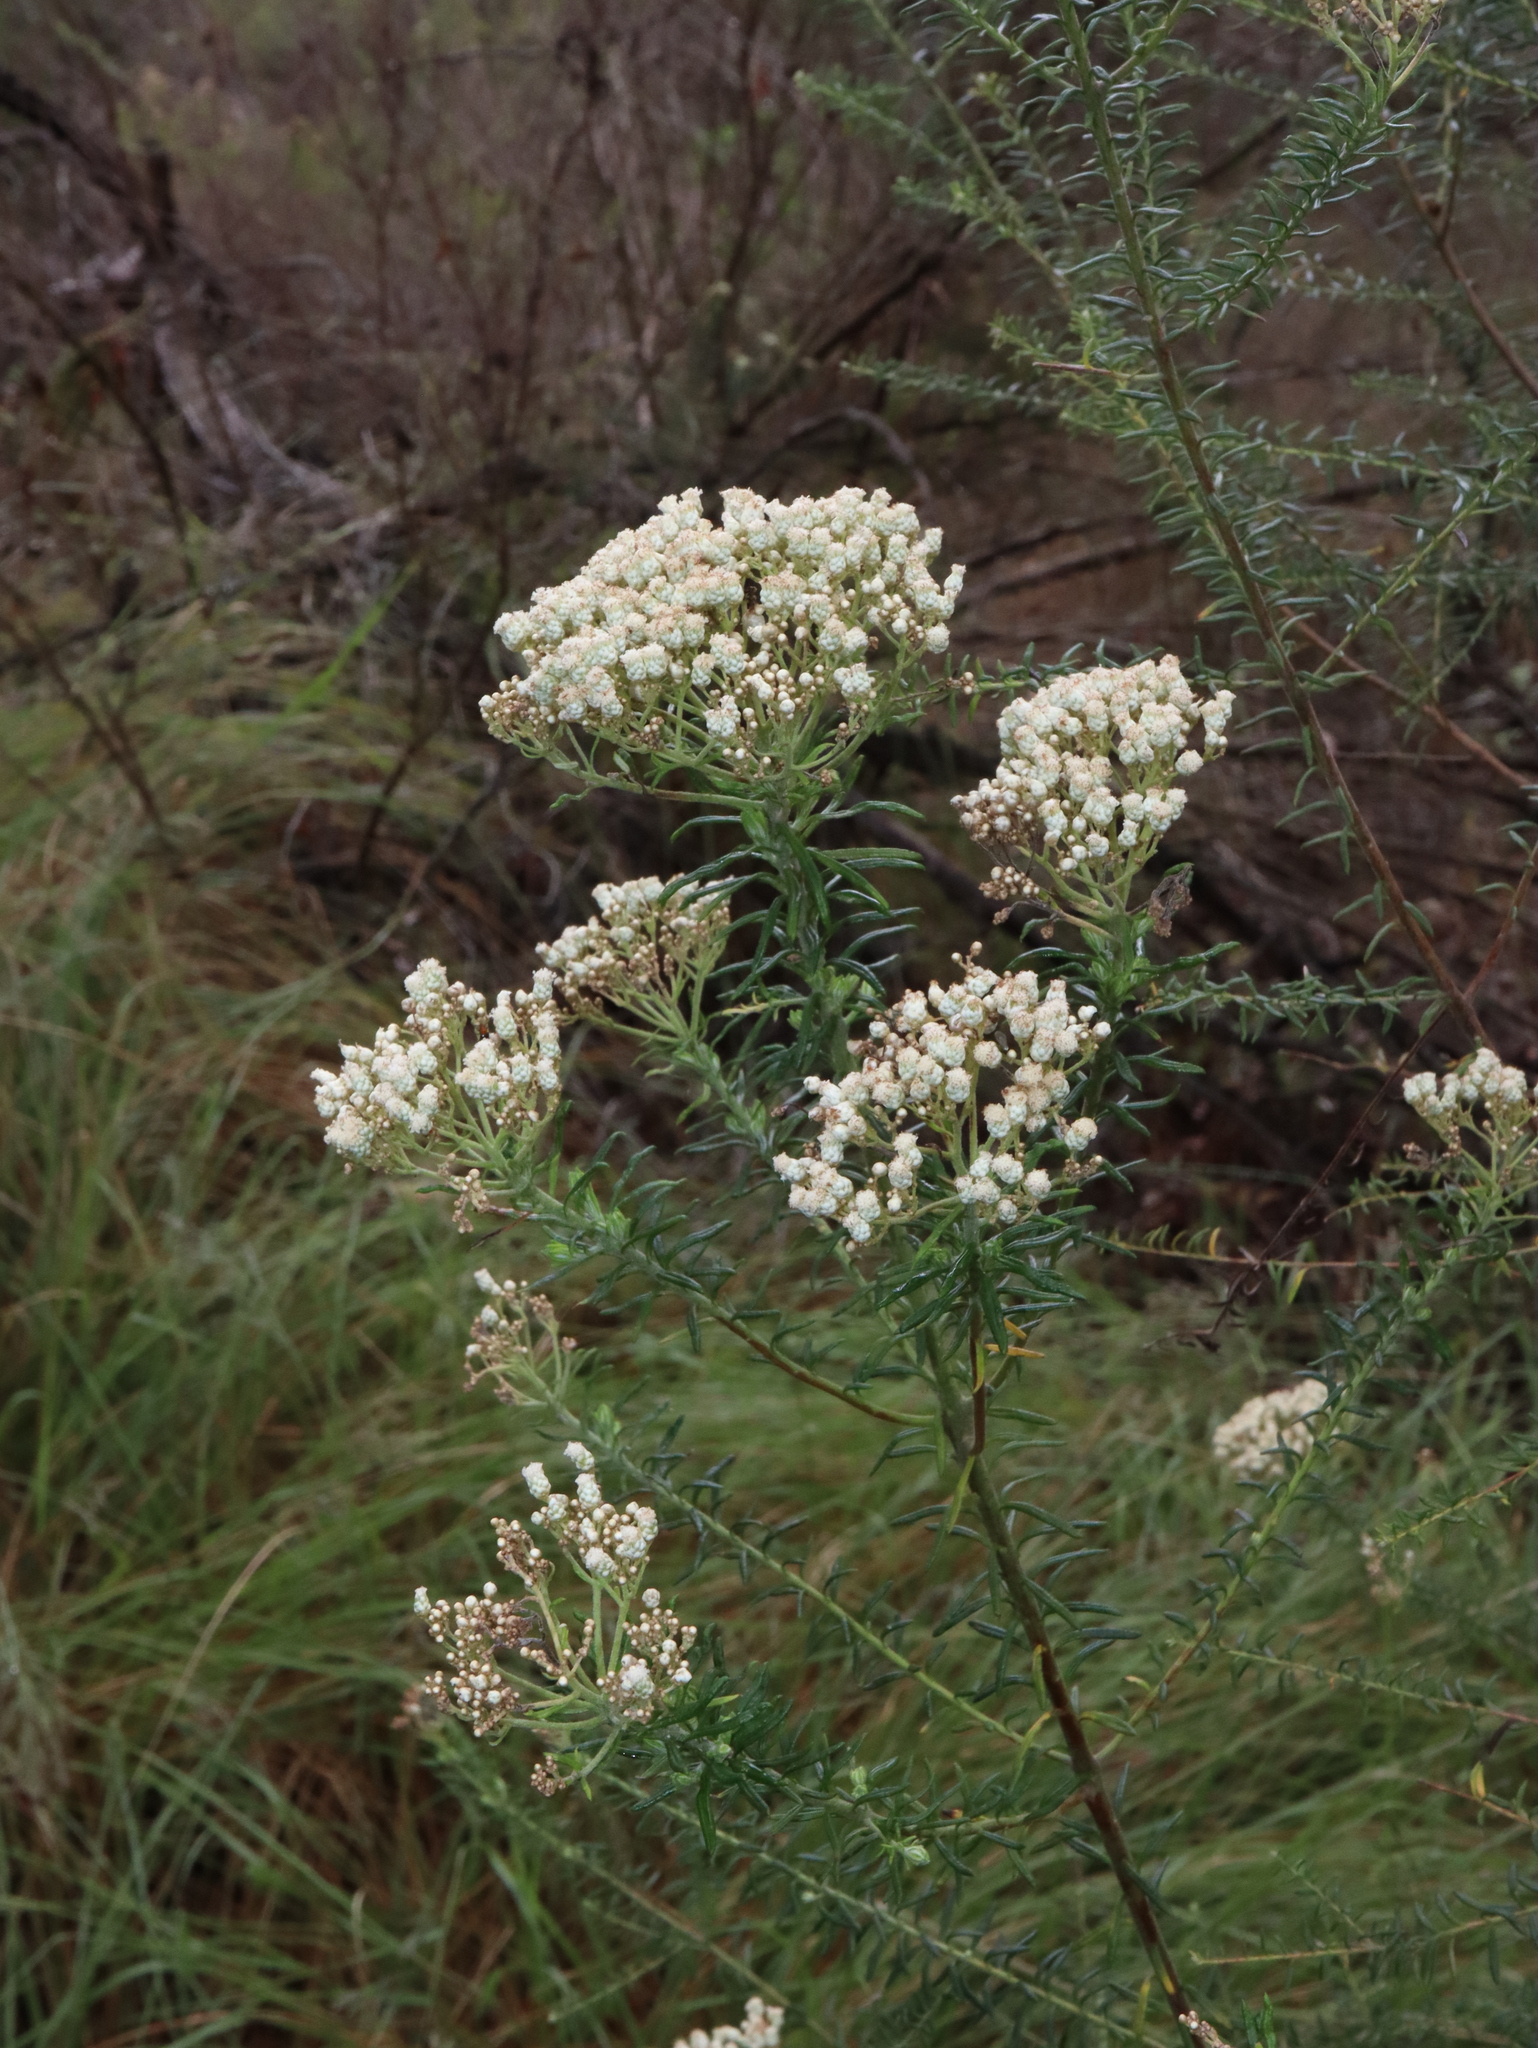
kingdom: Plantae
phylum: Tracheophyta
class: Magnoliopsida
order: Asterales
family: Asteraceae
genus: Ozothamnus
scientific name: Ozothamnus diosmifolius
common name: White-dogwood
